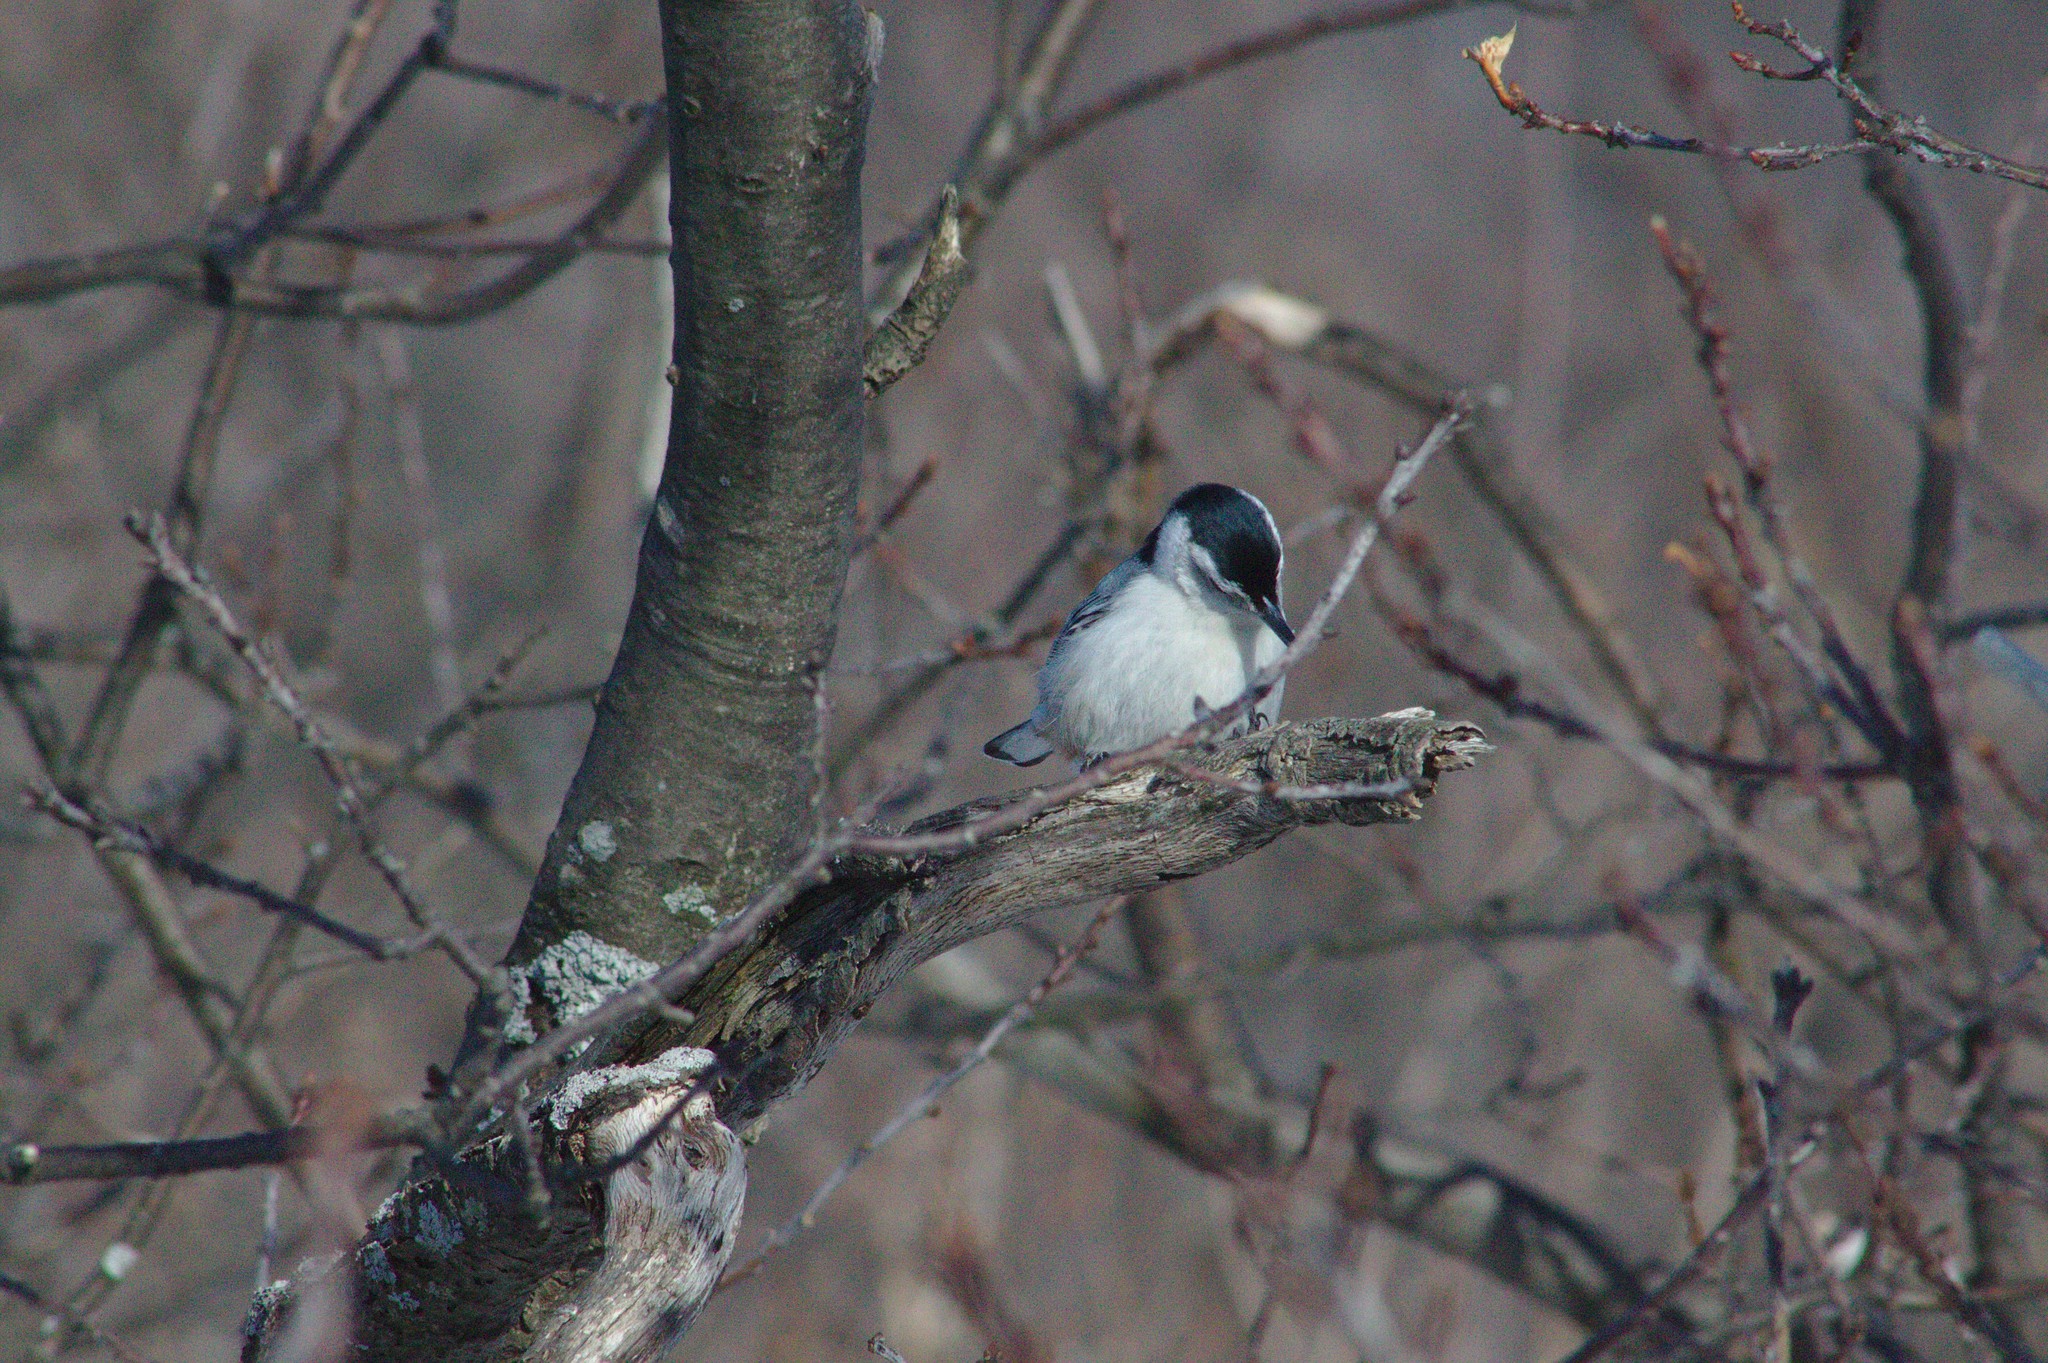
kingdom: Animalia
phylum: Chordata
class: Aves
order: Passeriformes
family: Sittidae
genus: Sitta
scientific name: Sitta carolinensis
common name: White-breasted nuthatch
